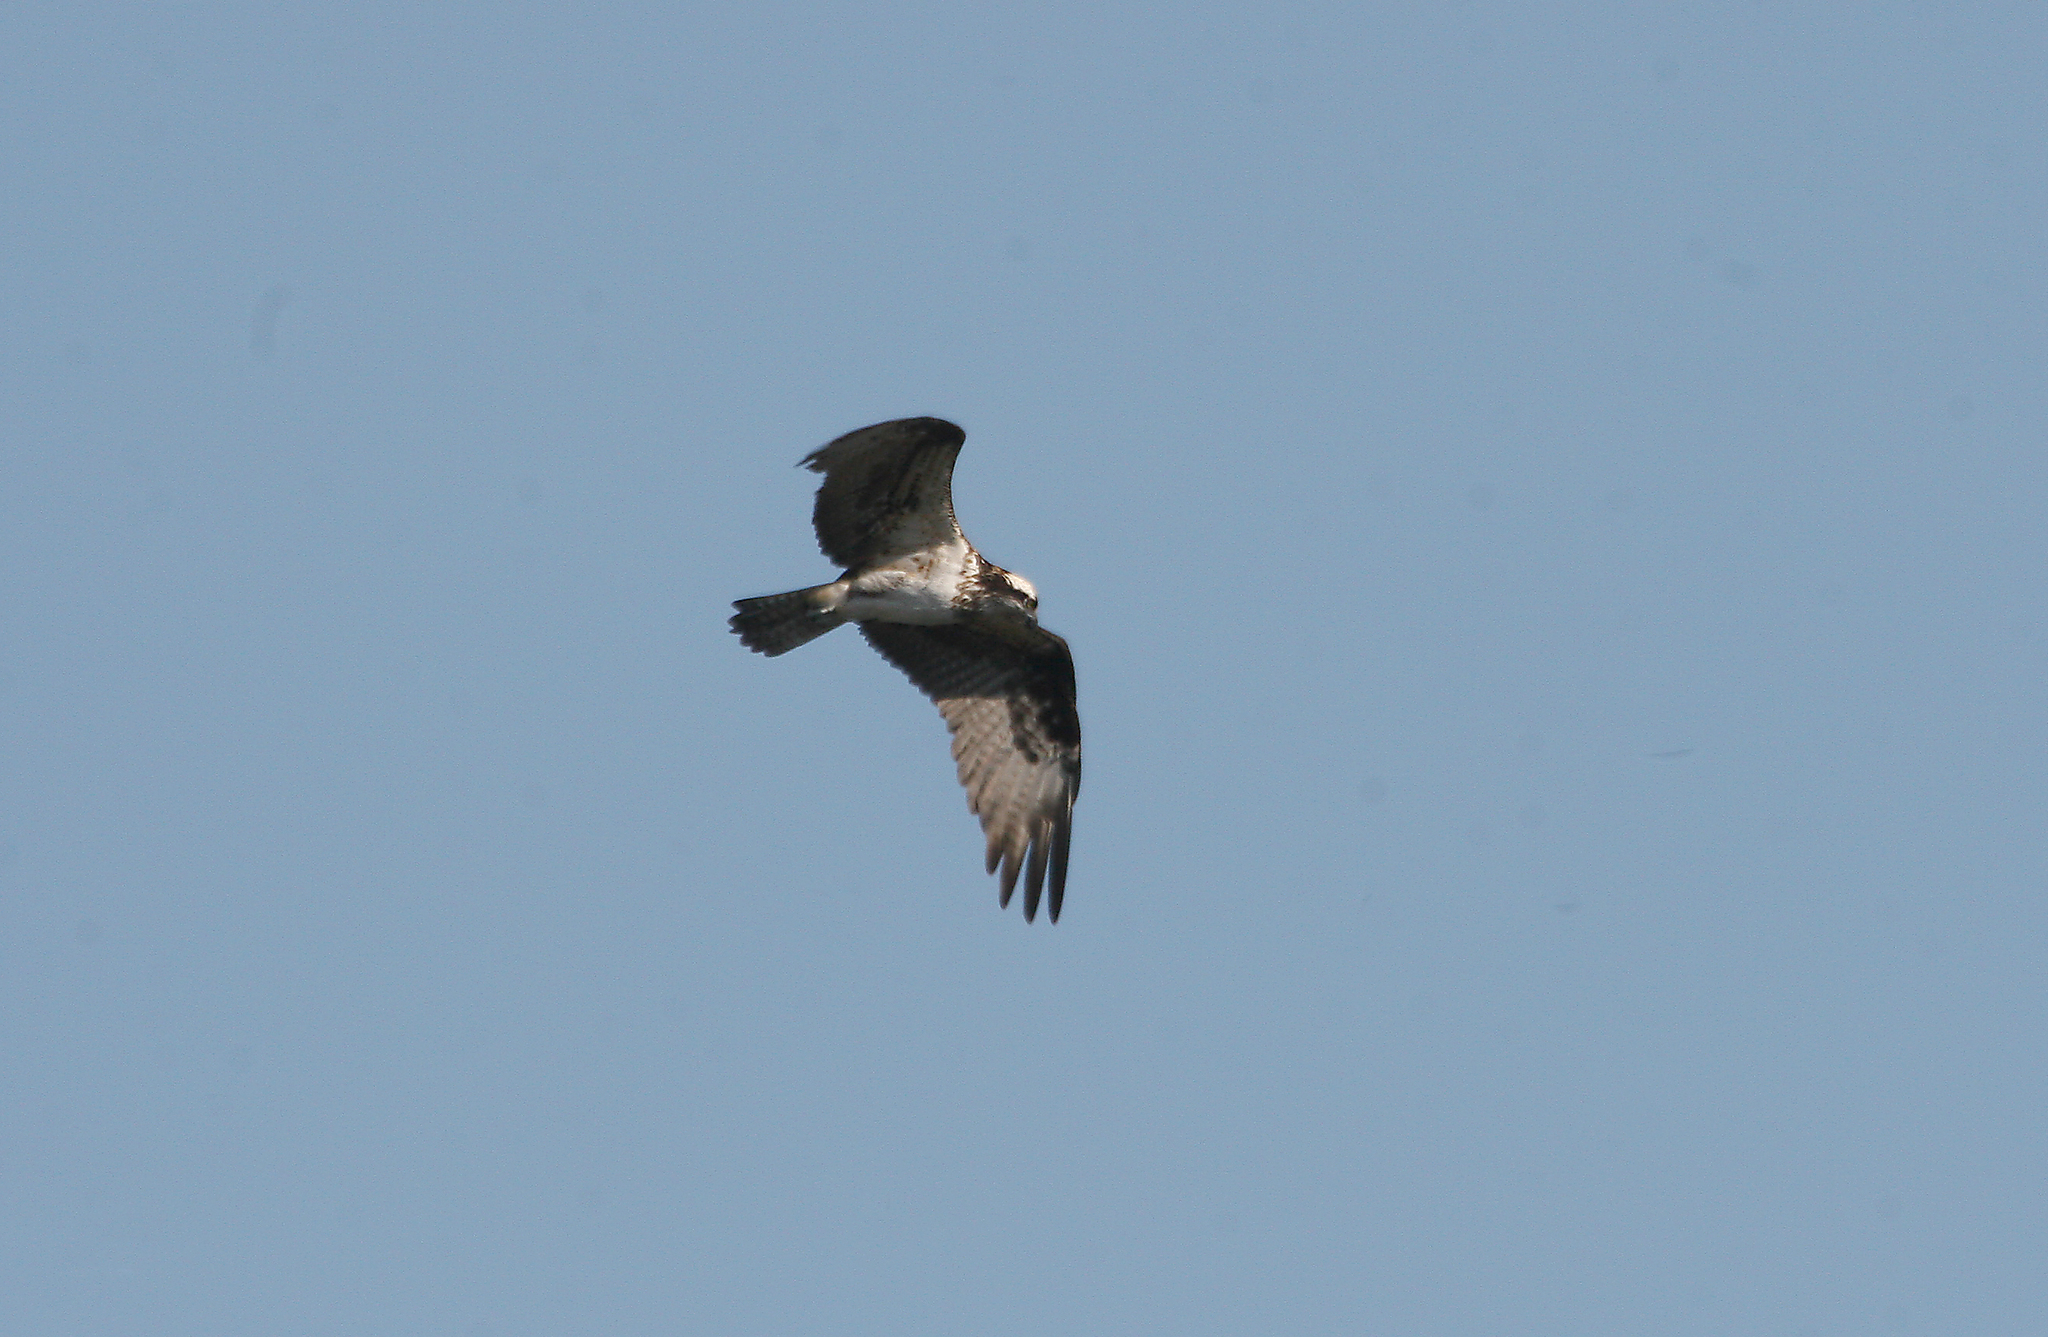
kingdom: Animalia
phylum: Chordata
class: Aves
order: Accipitriformes
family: Pandionidae
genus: Pandion
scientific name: Pandion haliaetus
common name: Osprey
